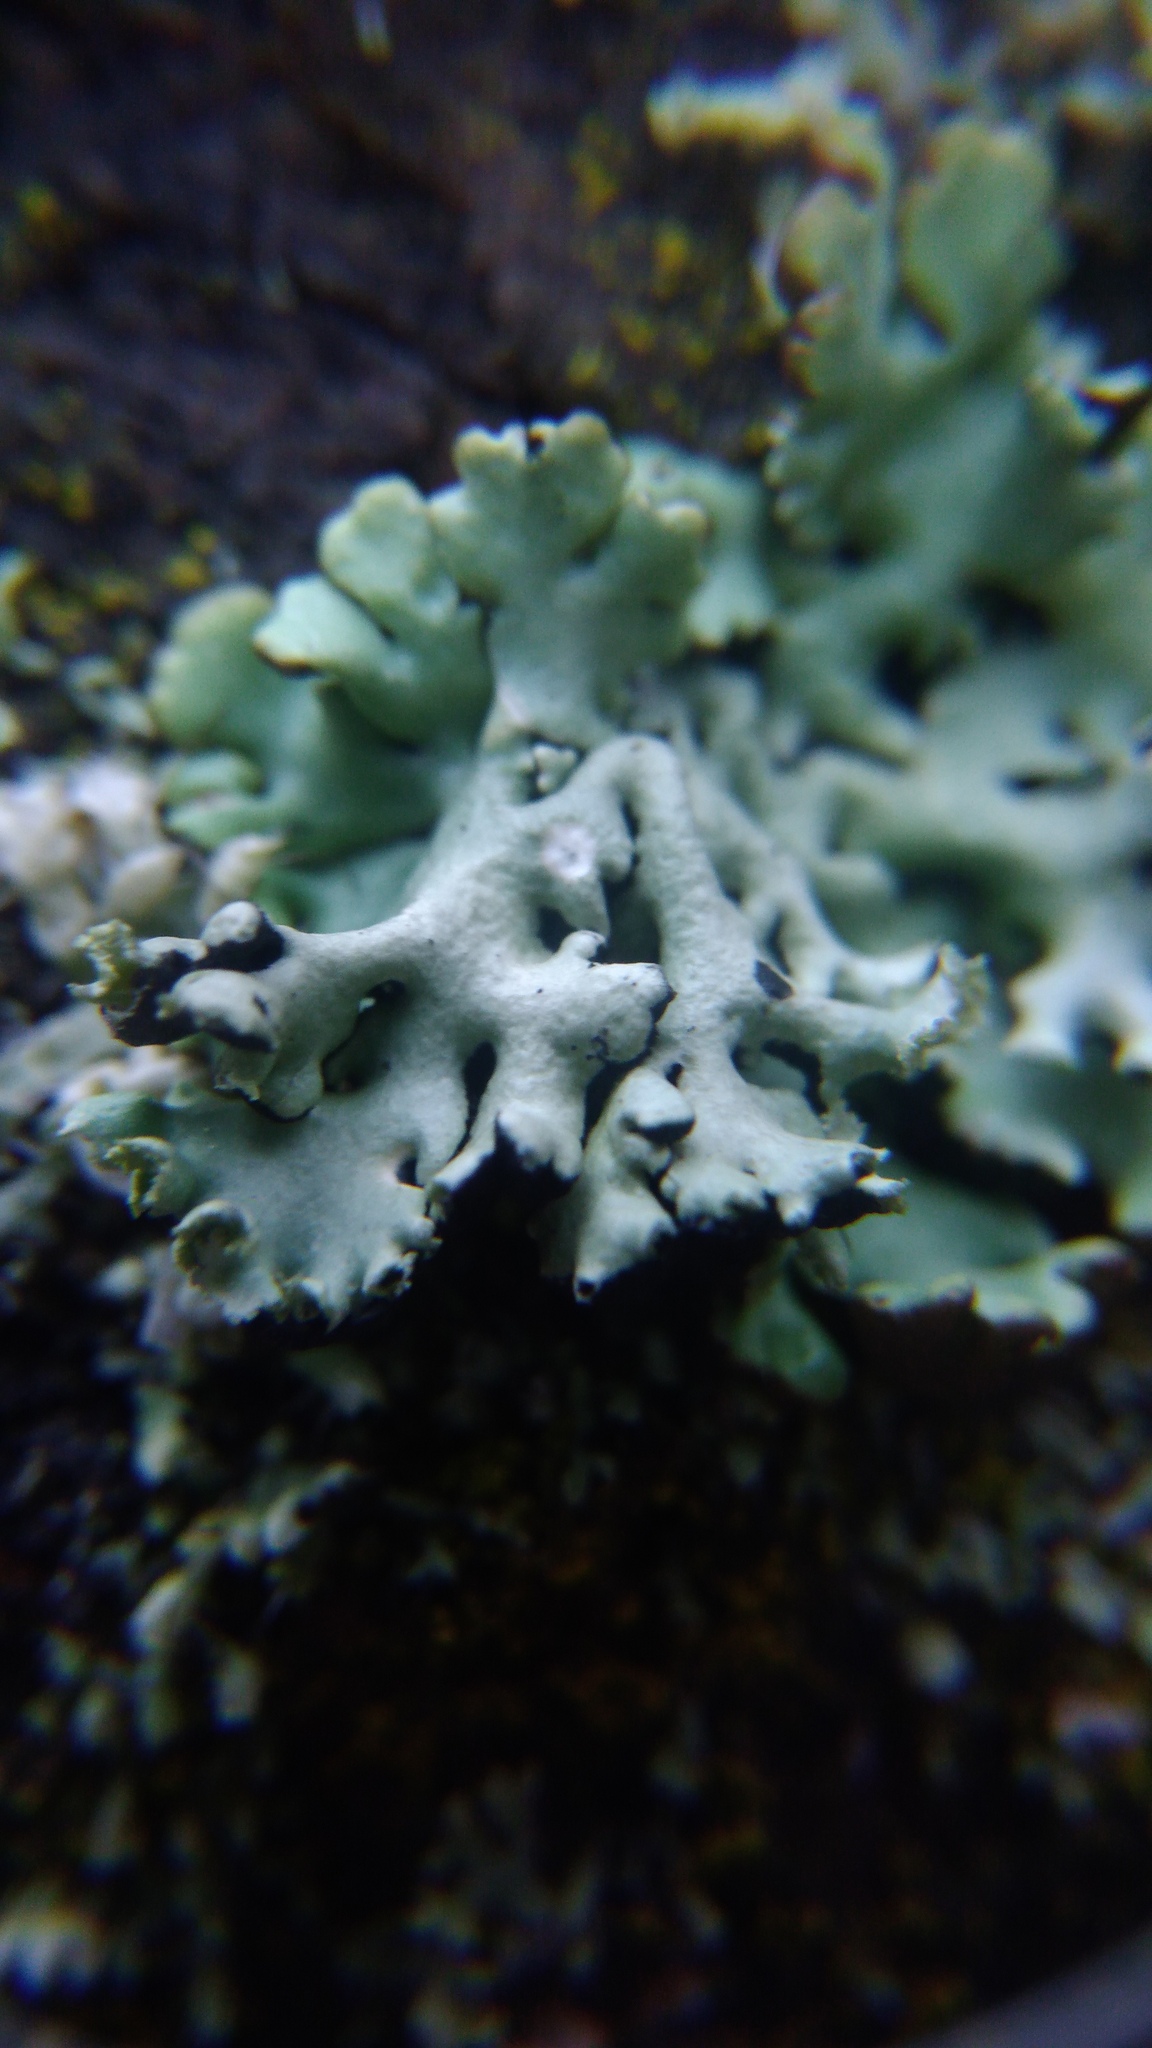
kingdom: Fungi
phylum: Ascomycota
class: Lecanoromycetes
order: Lecanorales
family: Parmeliaceae
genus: Hypogymnia
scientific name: Hypogymnia physodes
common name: Dark crottle
